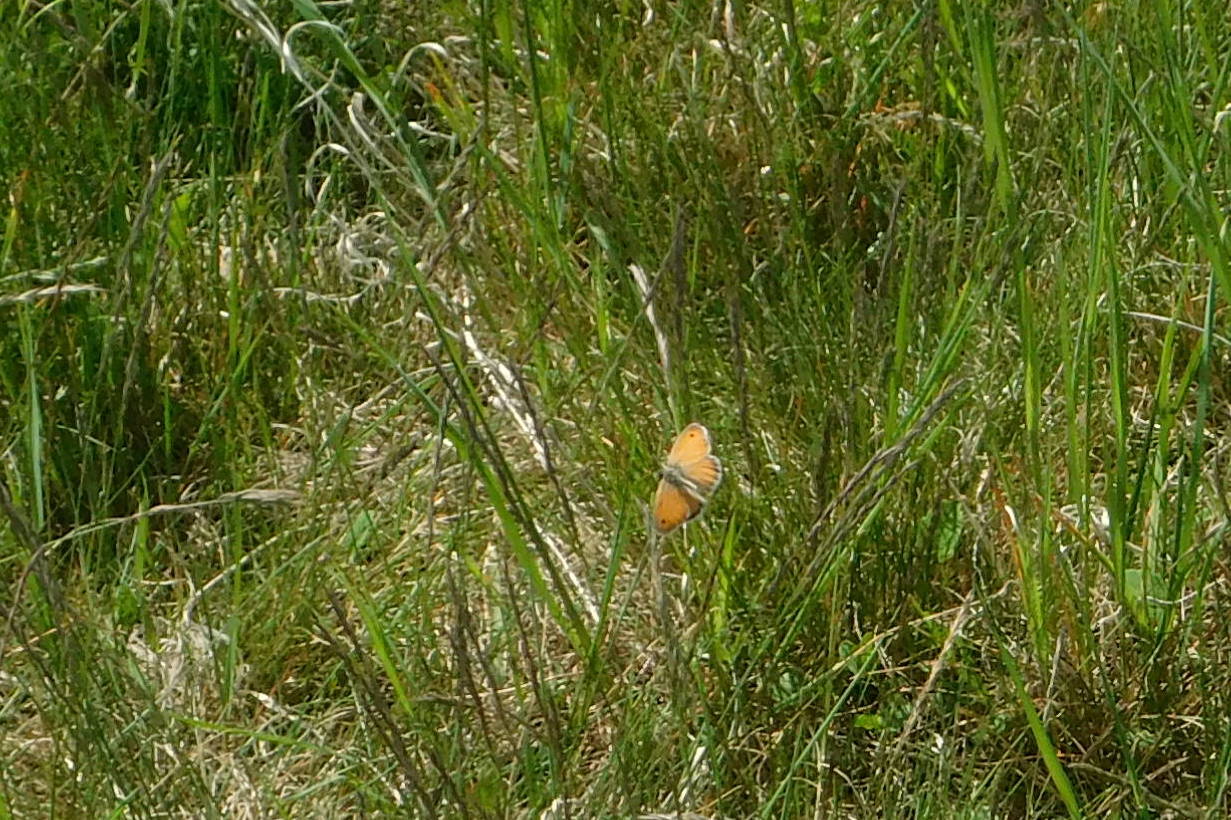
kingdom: Animalia
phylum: Arthropoda
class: Insecta
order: Lepidoptera
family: Nymphalidae
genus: Coenonympha
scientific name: Coenonympha pamphilus
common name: Small heath
